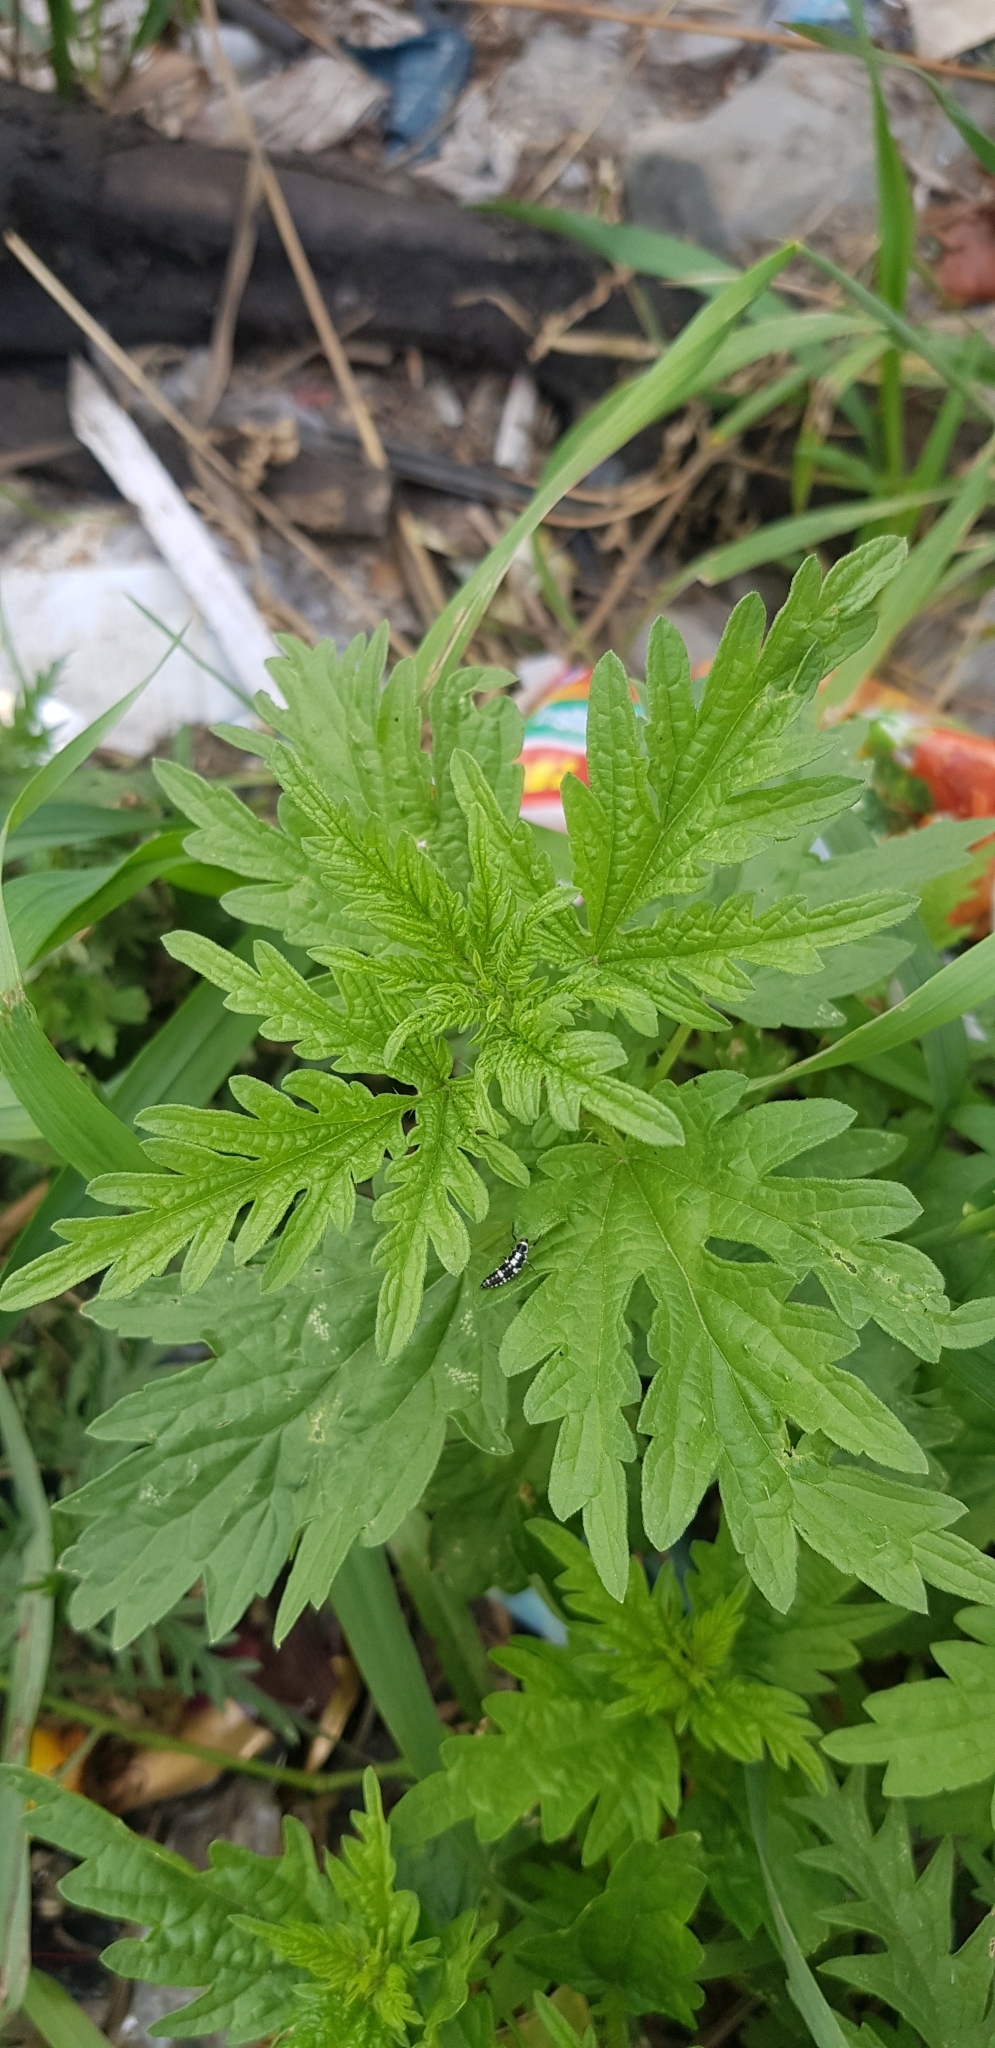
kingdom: Plantae
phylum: Tracheophyta
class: Magnoliopsida
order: Rosales
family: Urticaceae
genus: Urtica
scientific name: Urtica cannabina
